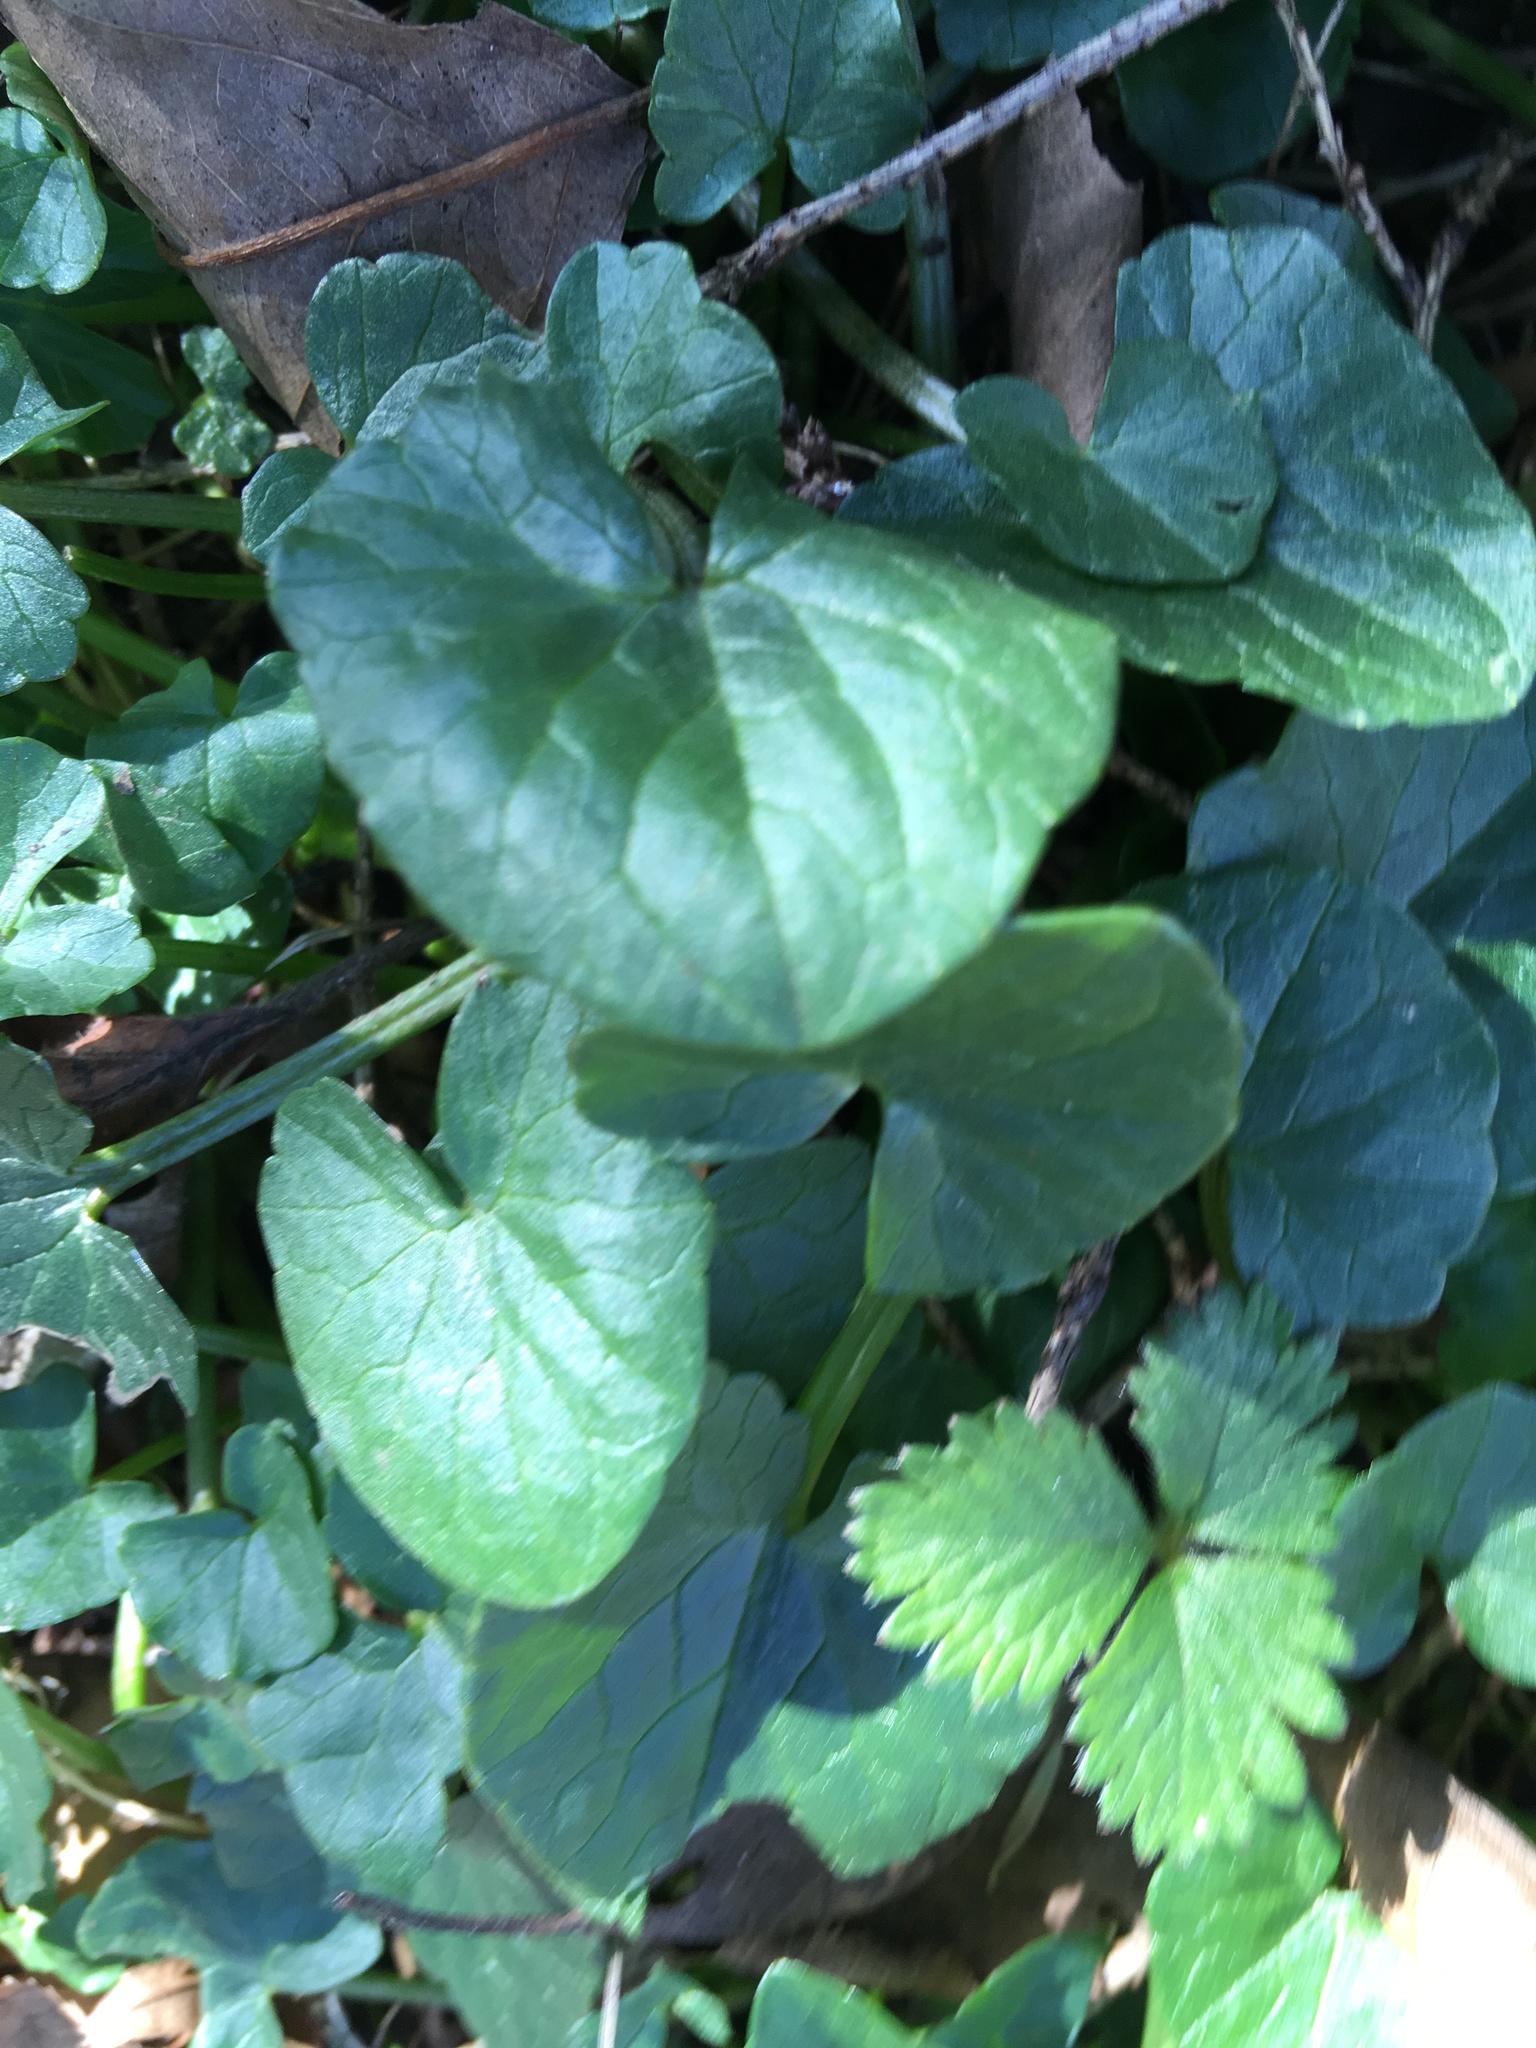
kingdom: Plantae
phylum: Tracheophyta
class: Magnoliopsida
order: Ranunculales
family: Ranunculaceae
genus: Ficaria
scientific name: Ficaria verna
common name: Lesser celandine
